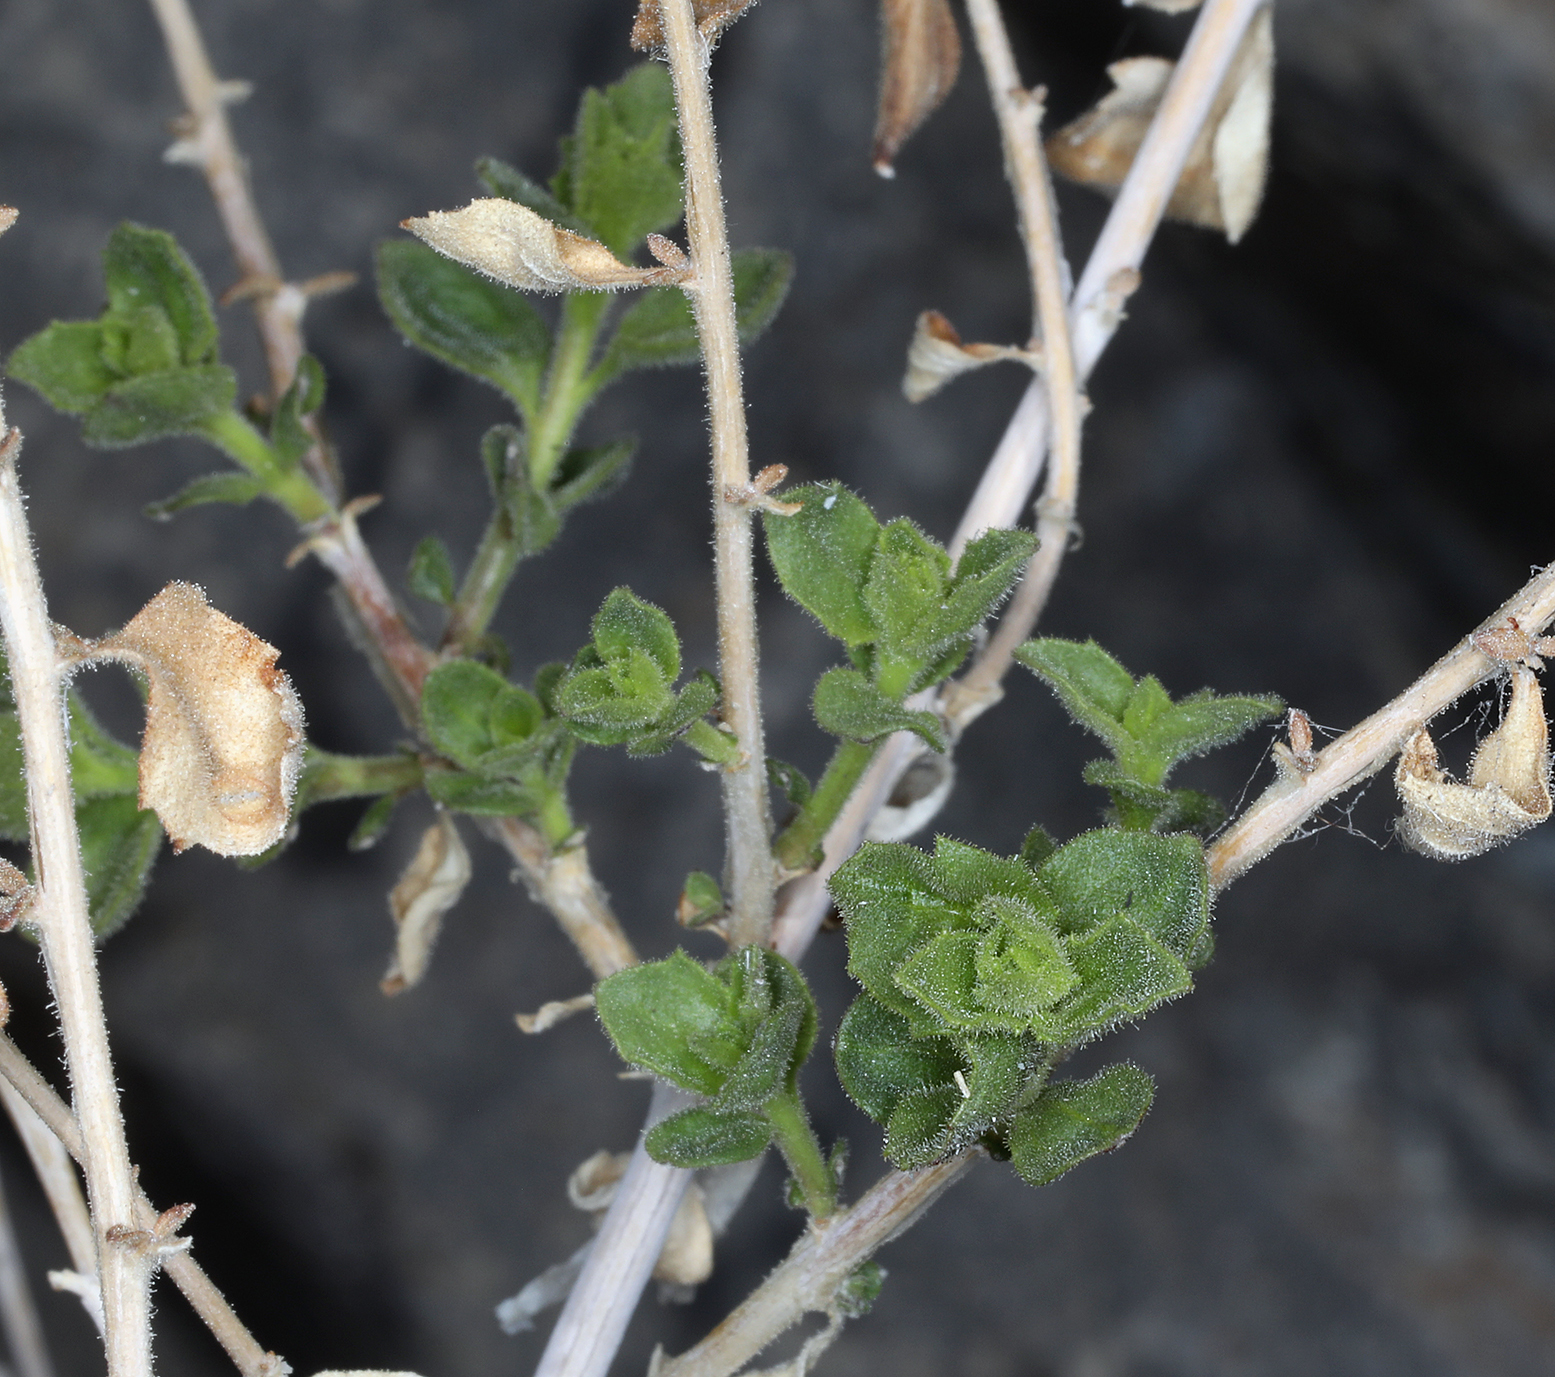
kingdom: Plantae
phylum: Tracheophyta
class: Magnoliopsida
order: Asterales
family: Asteraceae
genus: Brickellia
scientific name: Brickellia microphylla
